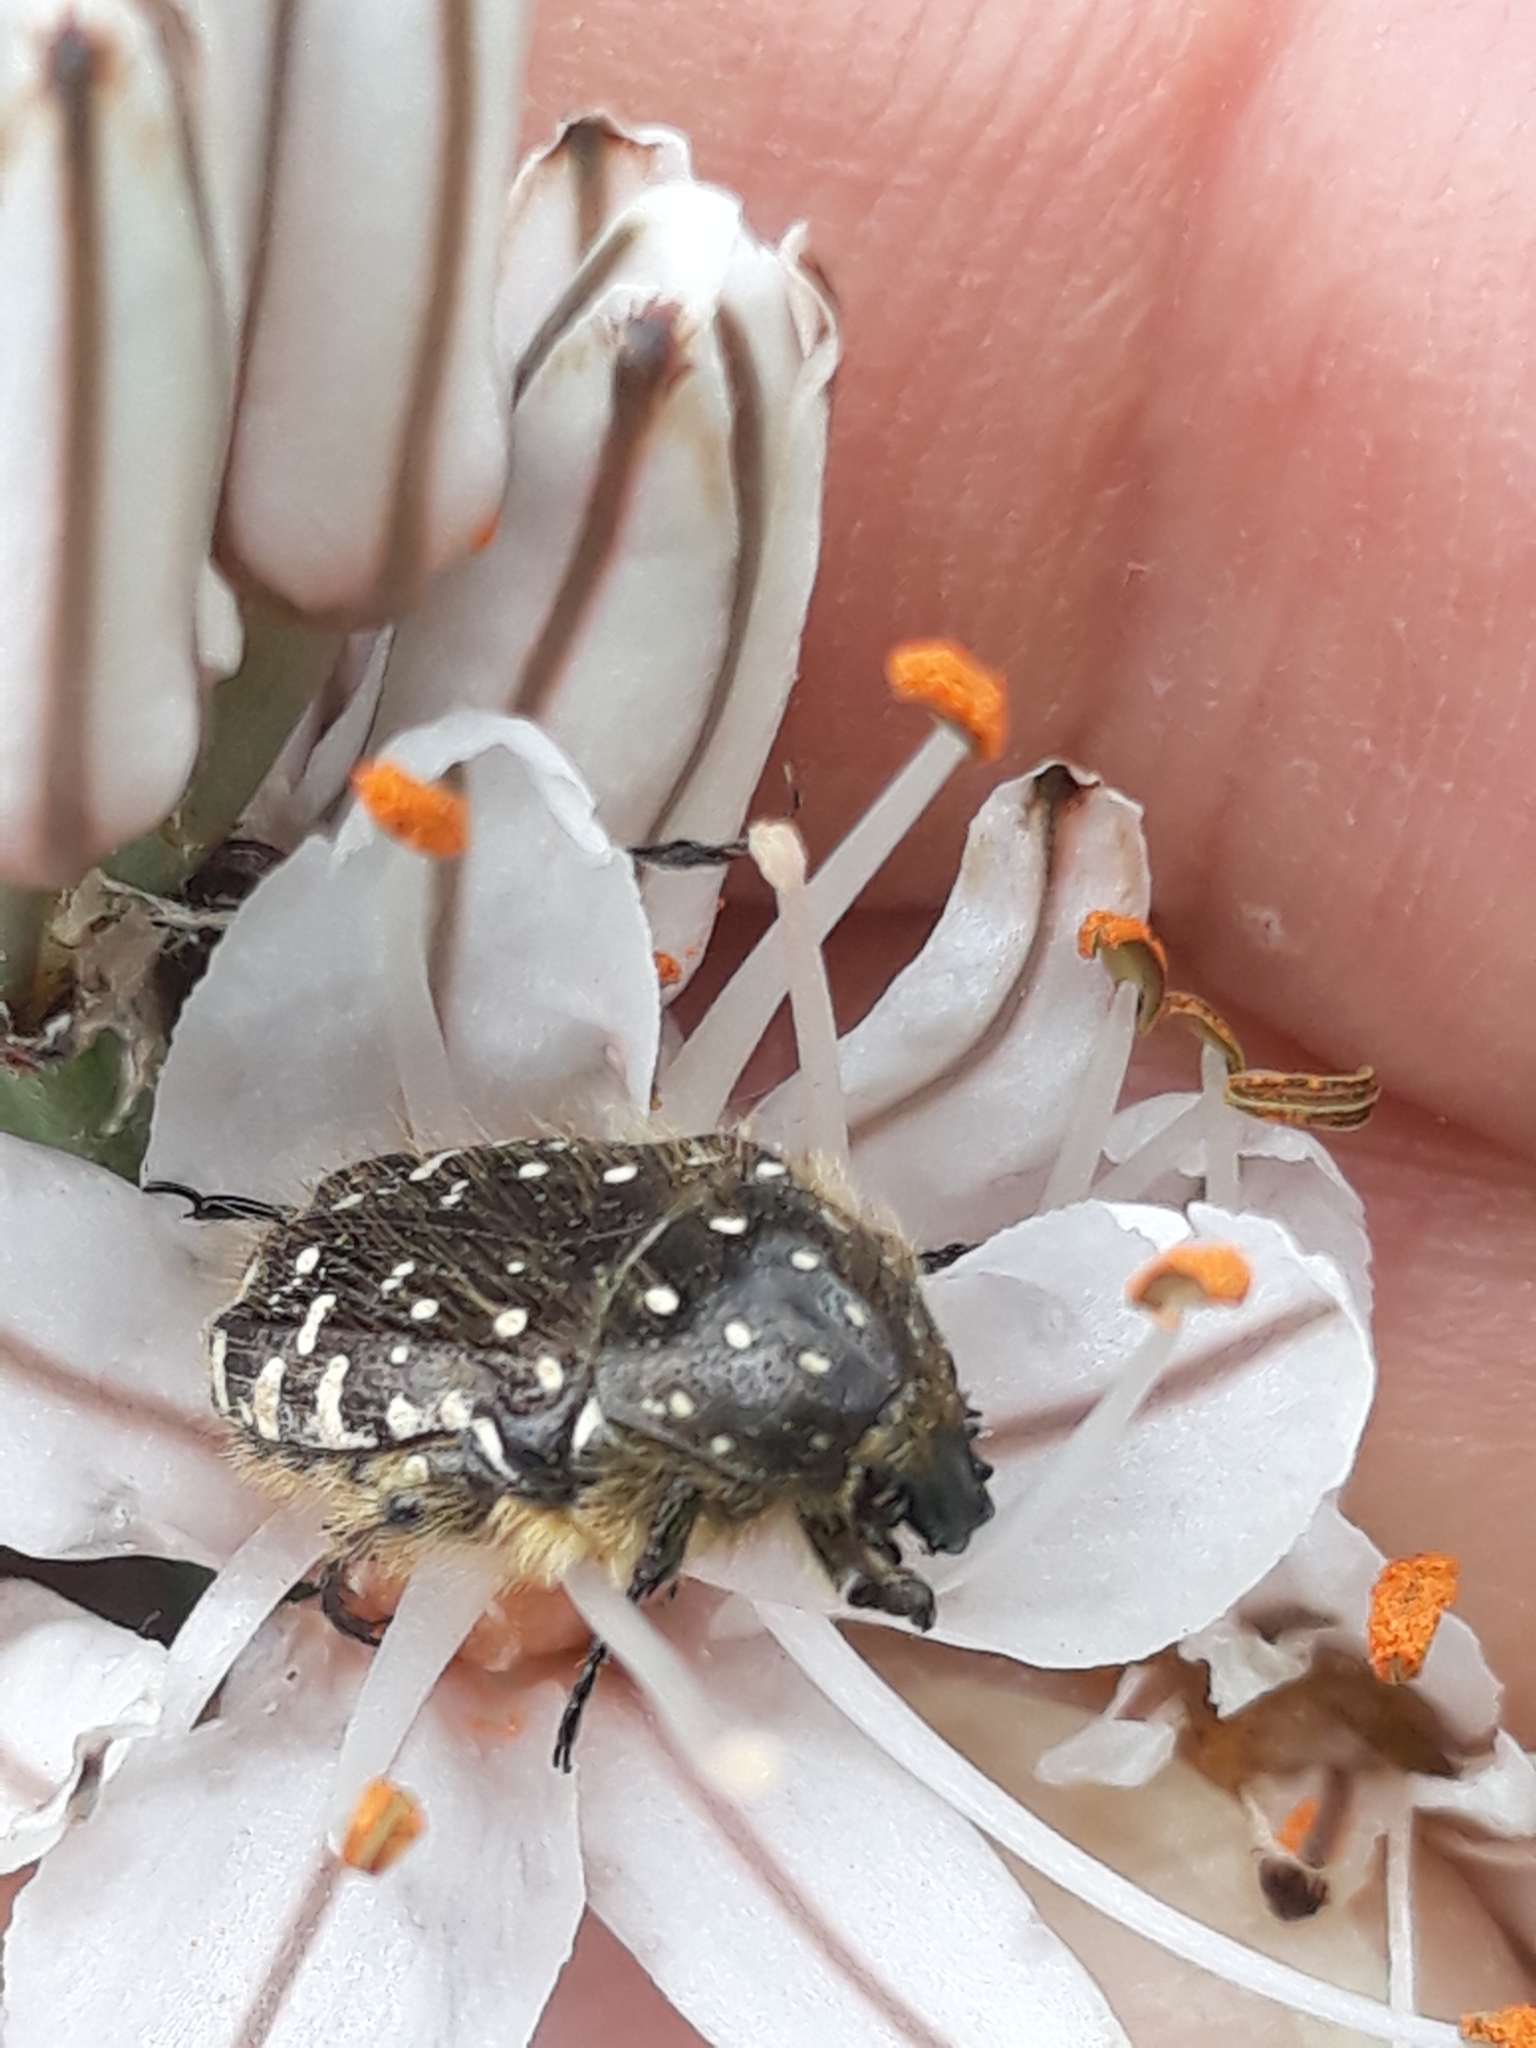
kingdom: Animalia
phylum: Arthropoda
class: Insecta
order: Coleoptera
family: Scarabaeidae
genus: Oxythyrea
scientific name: Oxythyrea funesta
